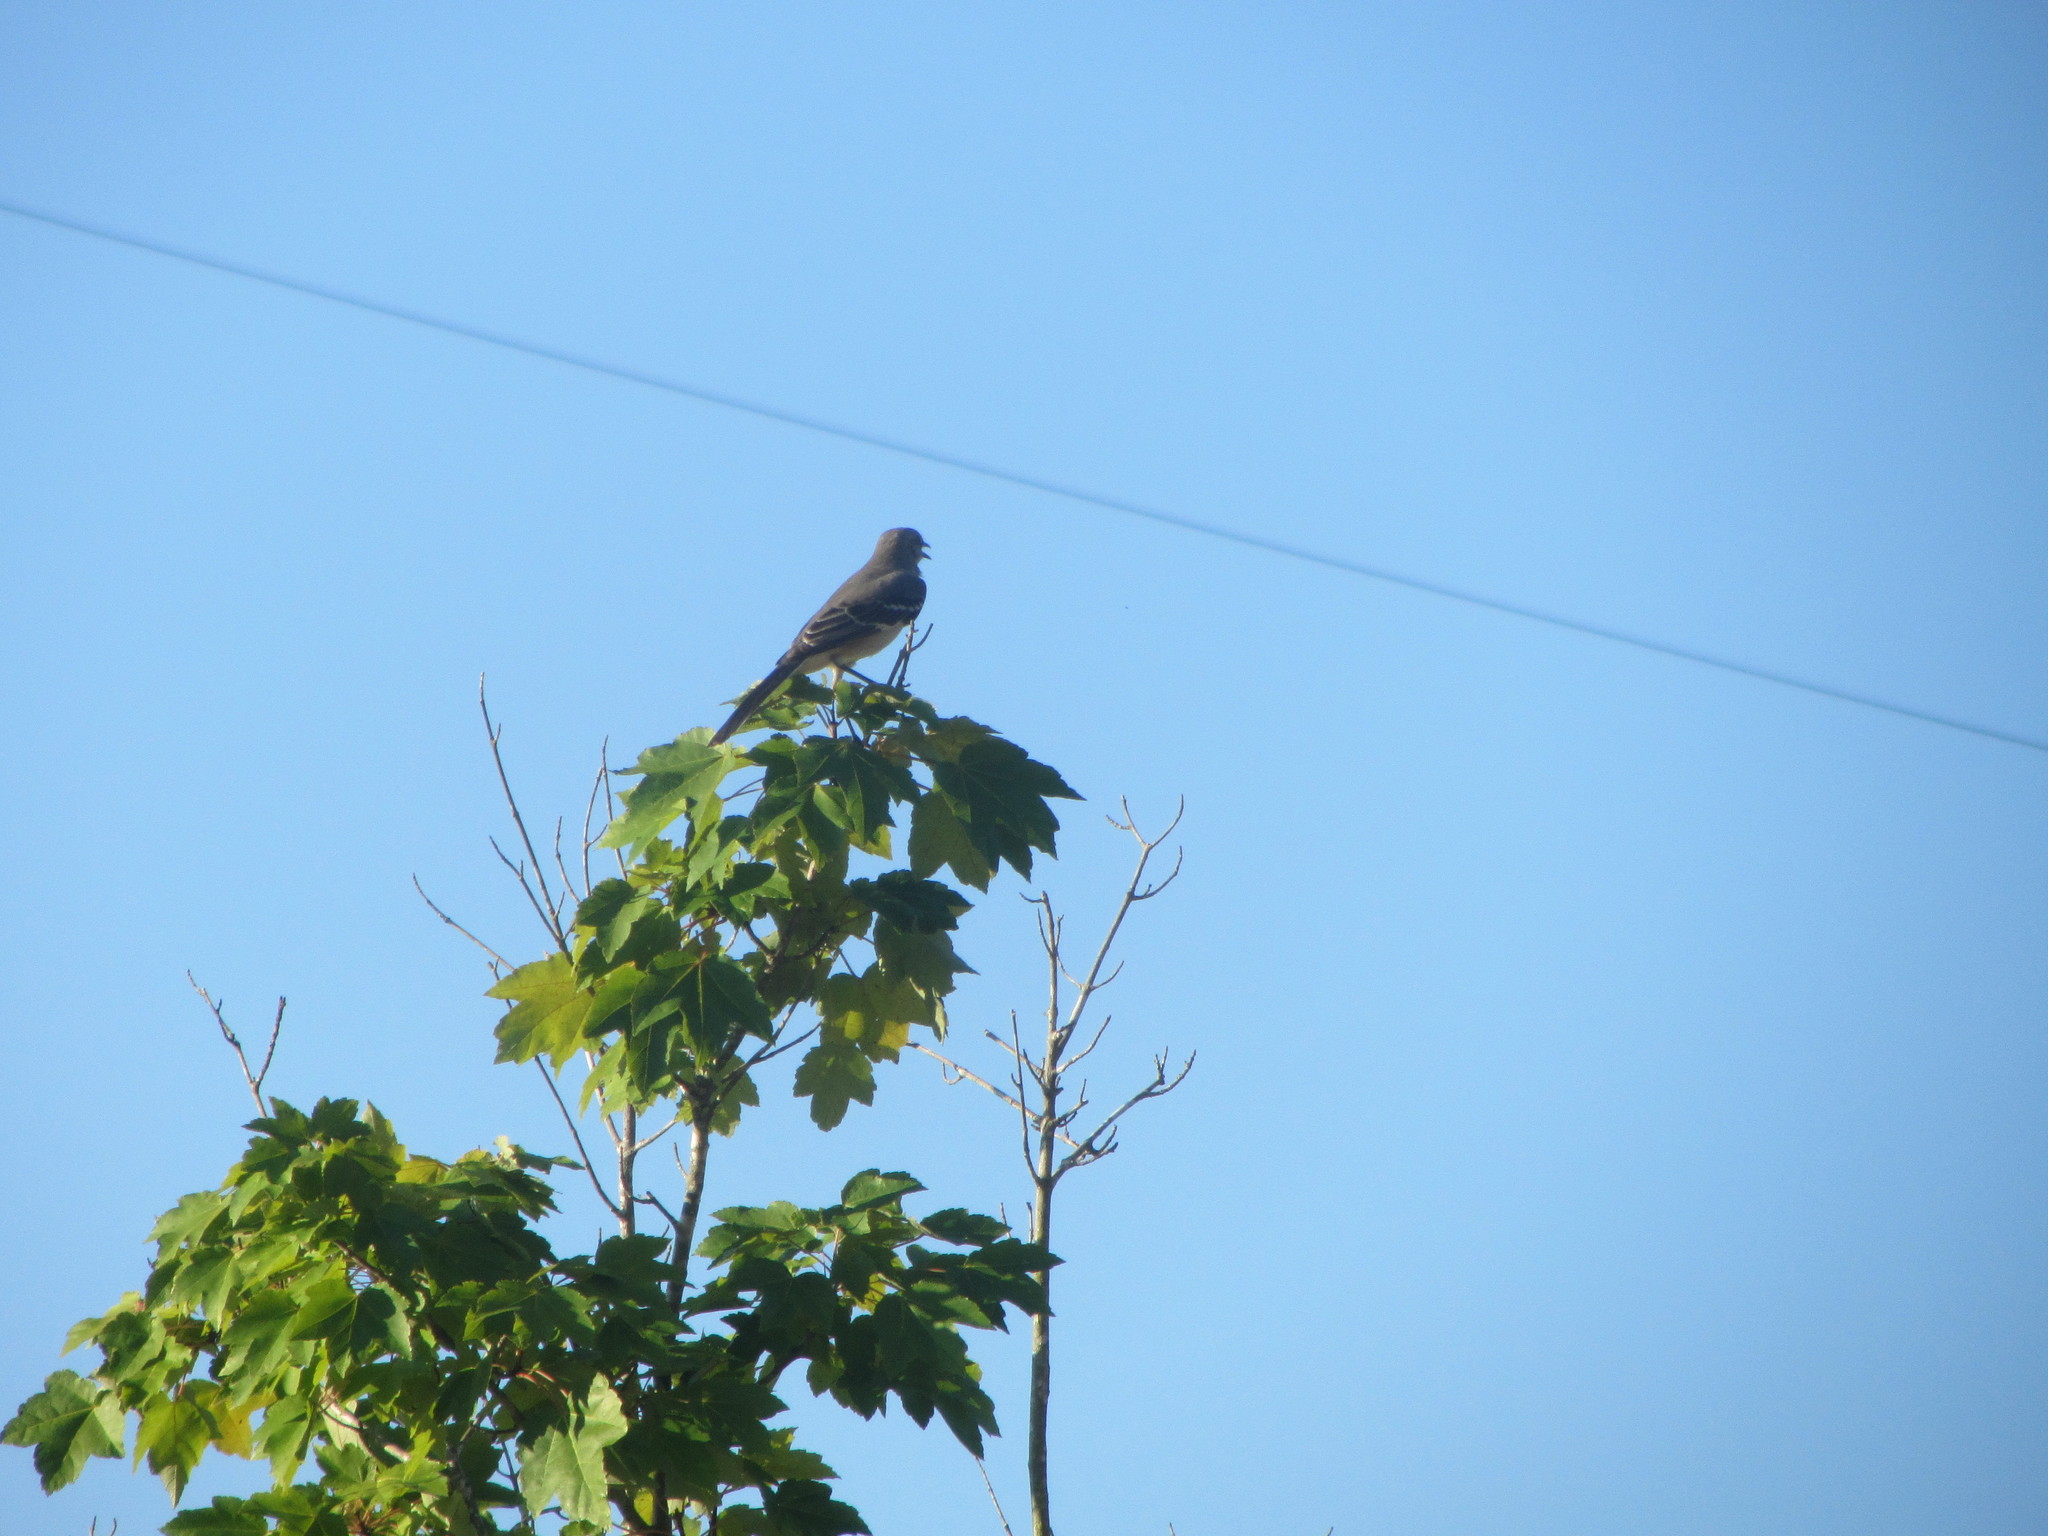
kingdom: Animalia
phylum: Chordata
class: Aves
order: Passeriformes
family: Mimidae
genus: Mimus
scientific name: Mimus polyglottos
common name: Northern mockingbird
